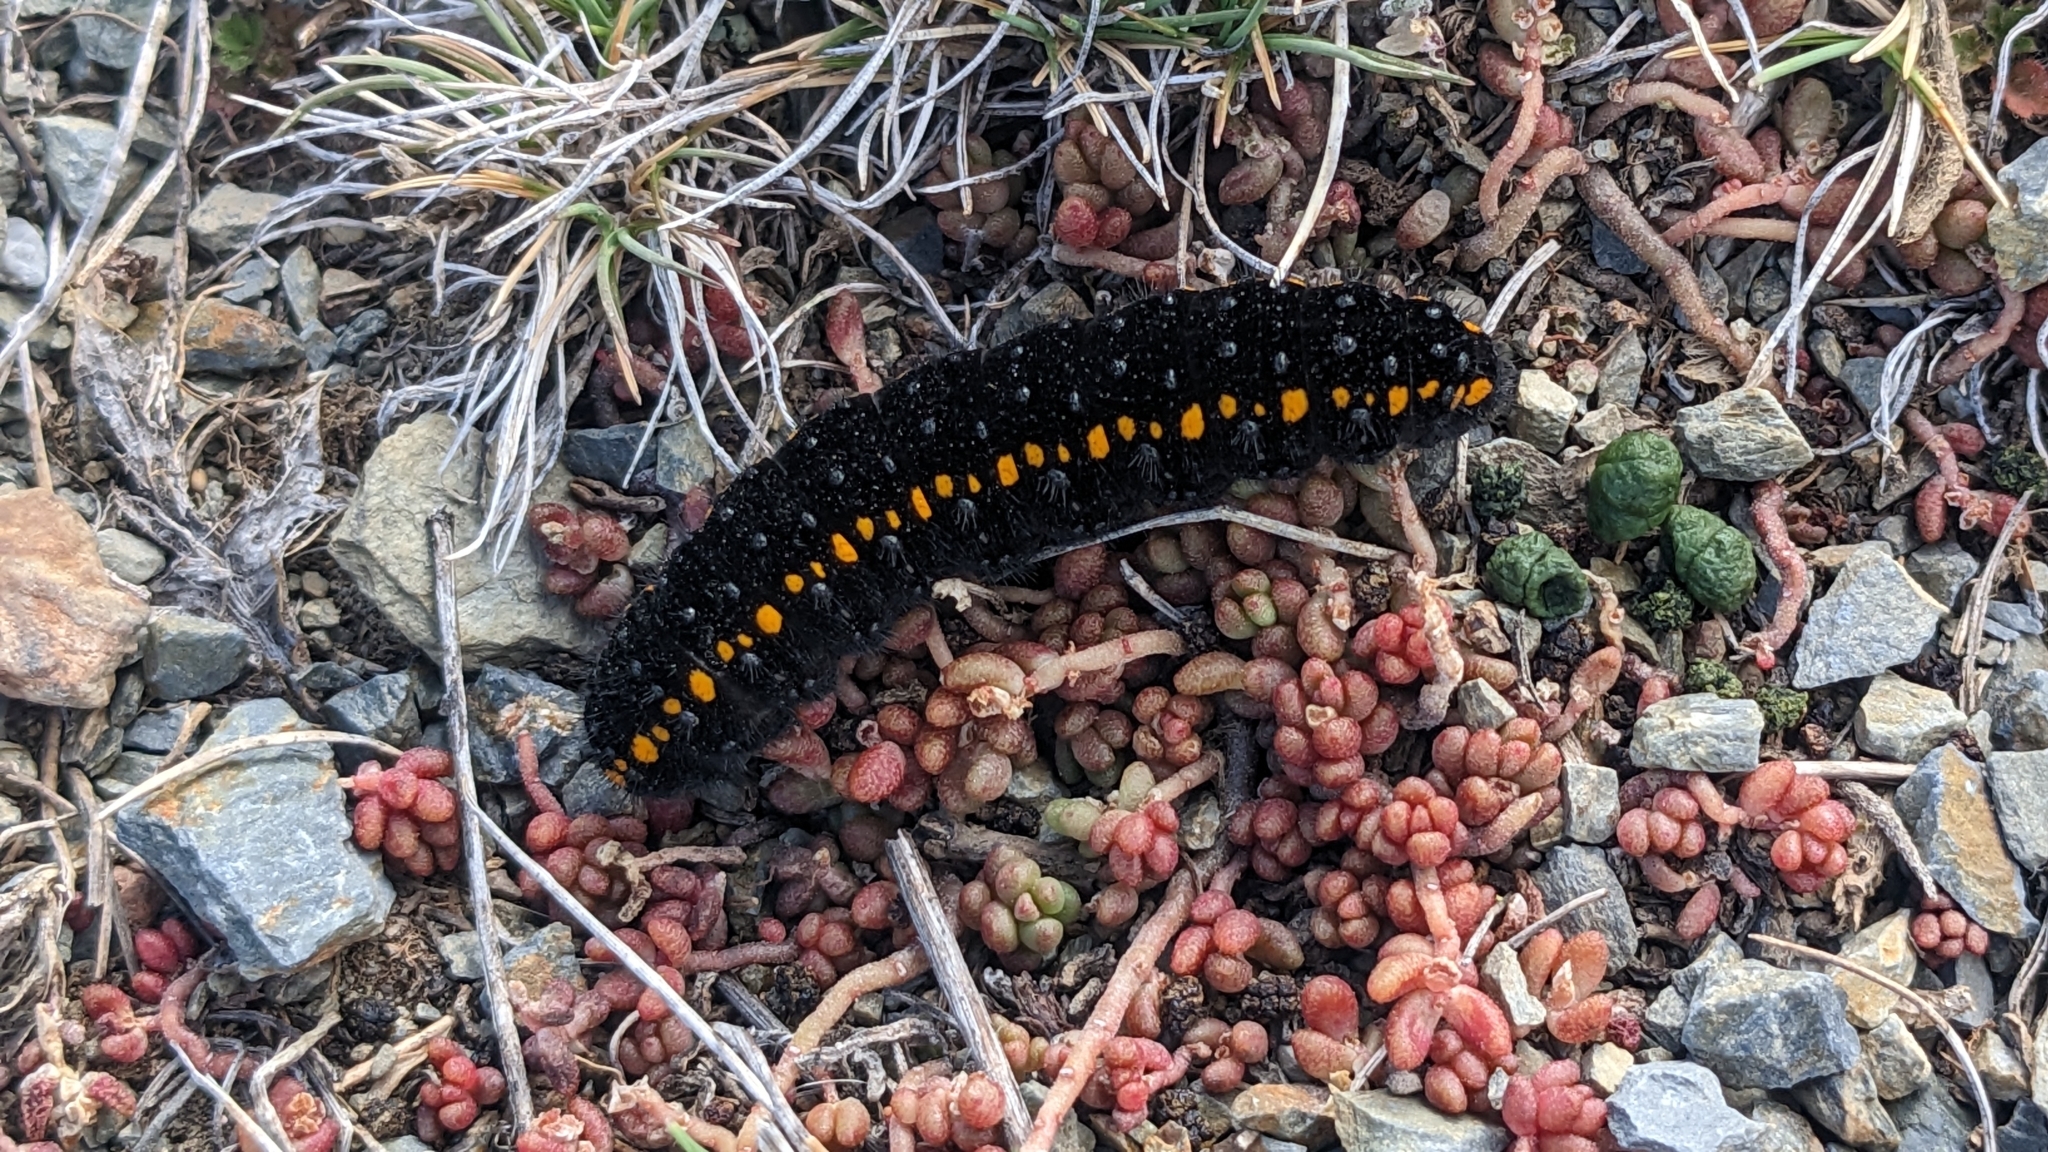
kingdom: Animalia
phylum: Arthropoda
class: Insecta
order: Lepidoptera
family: Papilionidae
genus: Parnassius
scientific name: Parnassius apollo
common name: Apollo
